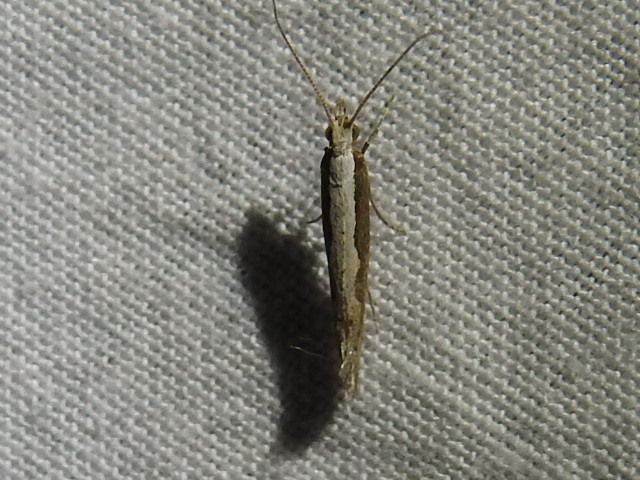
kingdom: Animalia
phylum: Arthropoda
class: Insecta
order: Lepidoptera
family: Plutellidae
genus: Plutella
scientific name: Plutella xylostella
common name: Diamond-back moth
